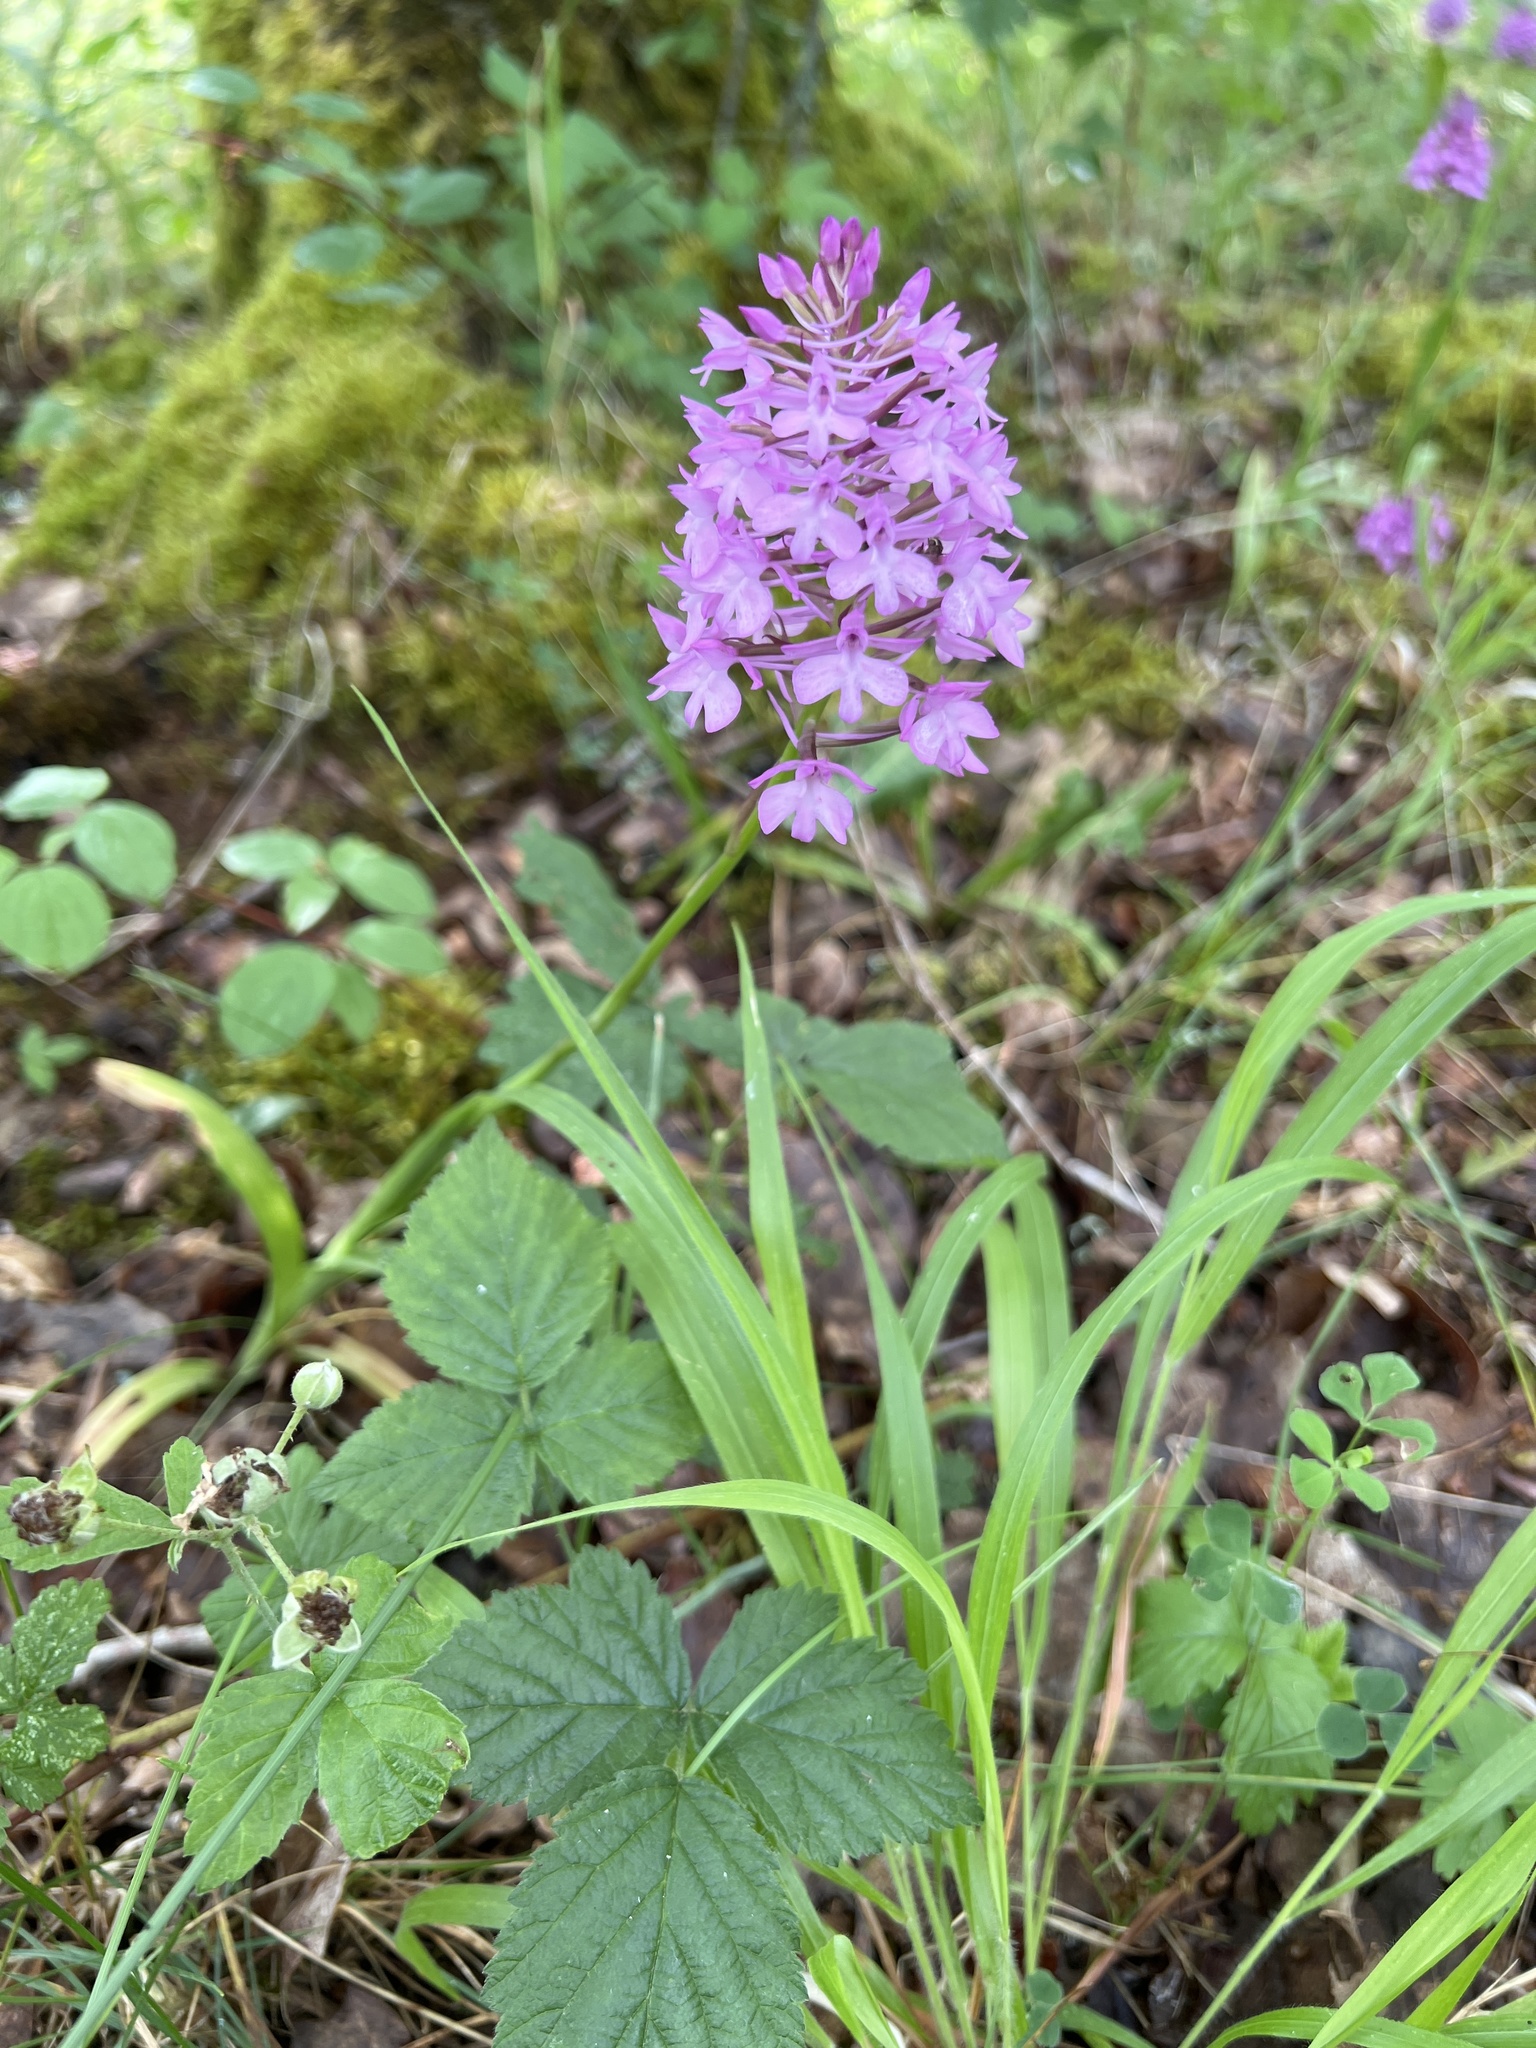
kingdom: Plantae
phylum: Tracheophyta
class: Liliopsida
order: Asparagales
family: Orchidaceae
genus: Anacamptis
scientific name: Anacamptis pyramidalis
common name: Pyramidal orchid
